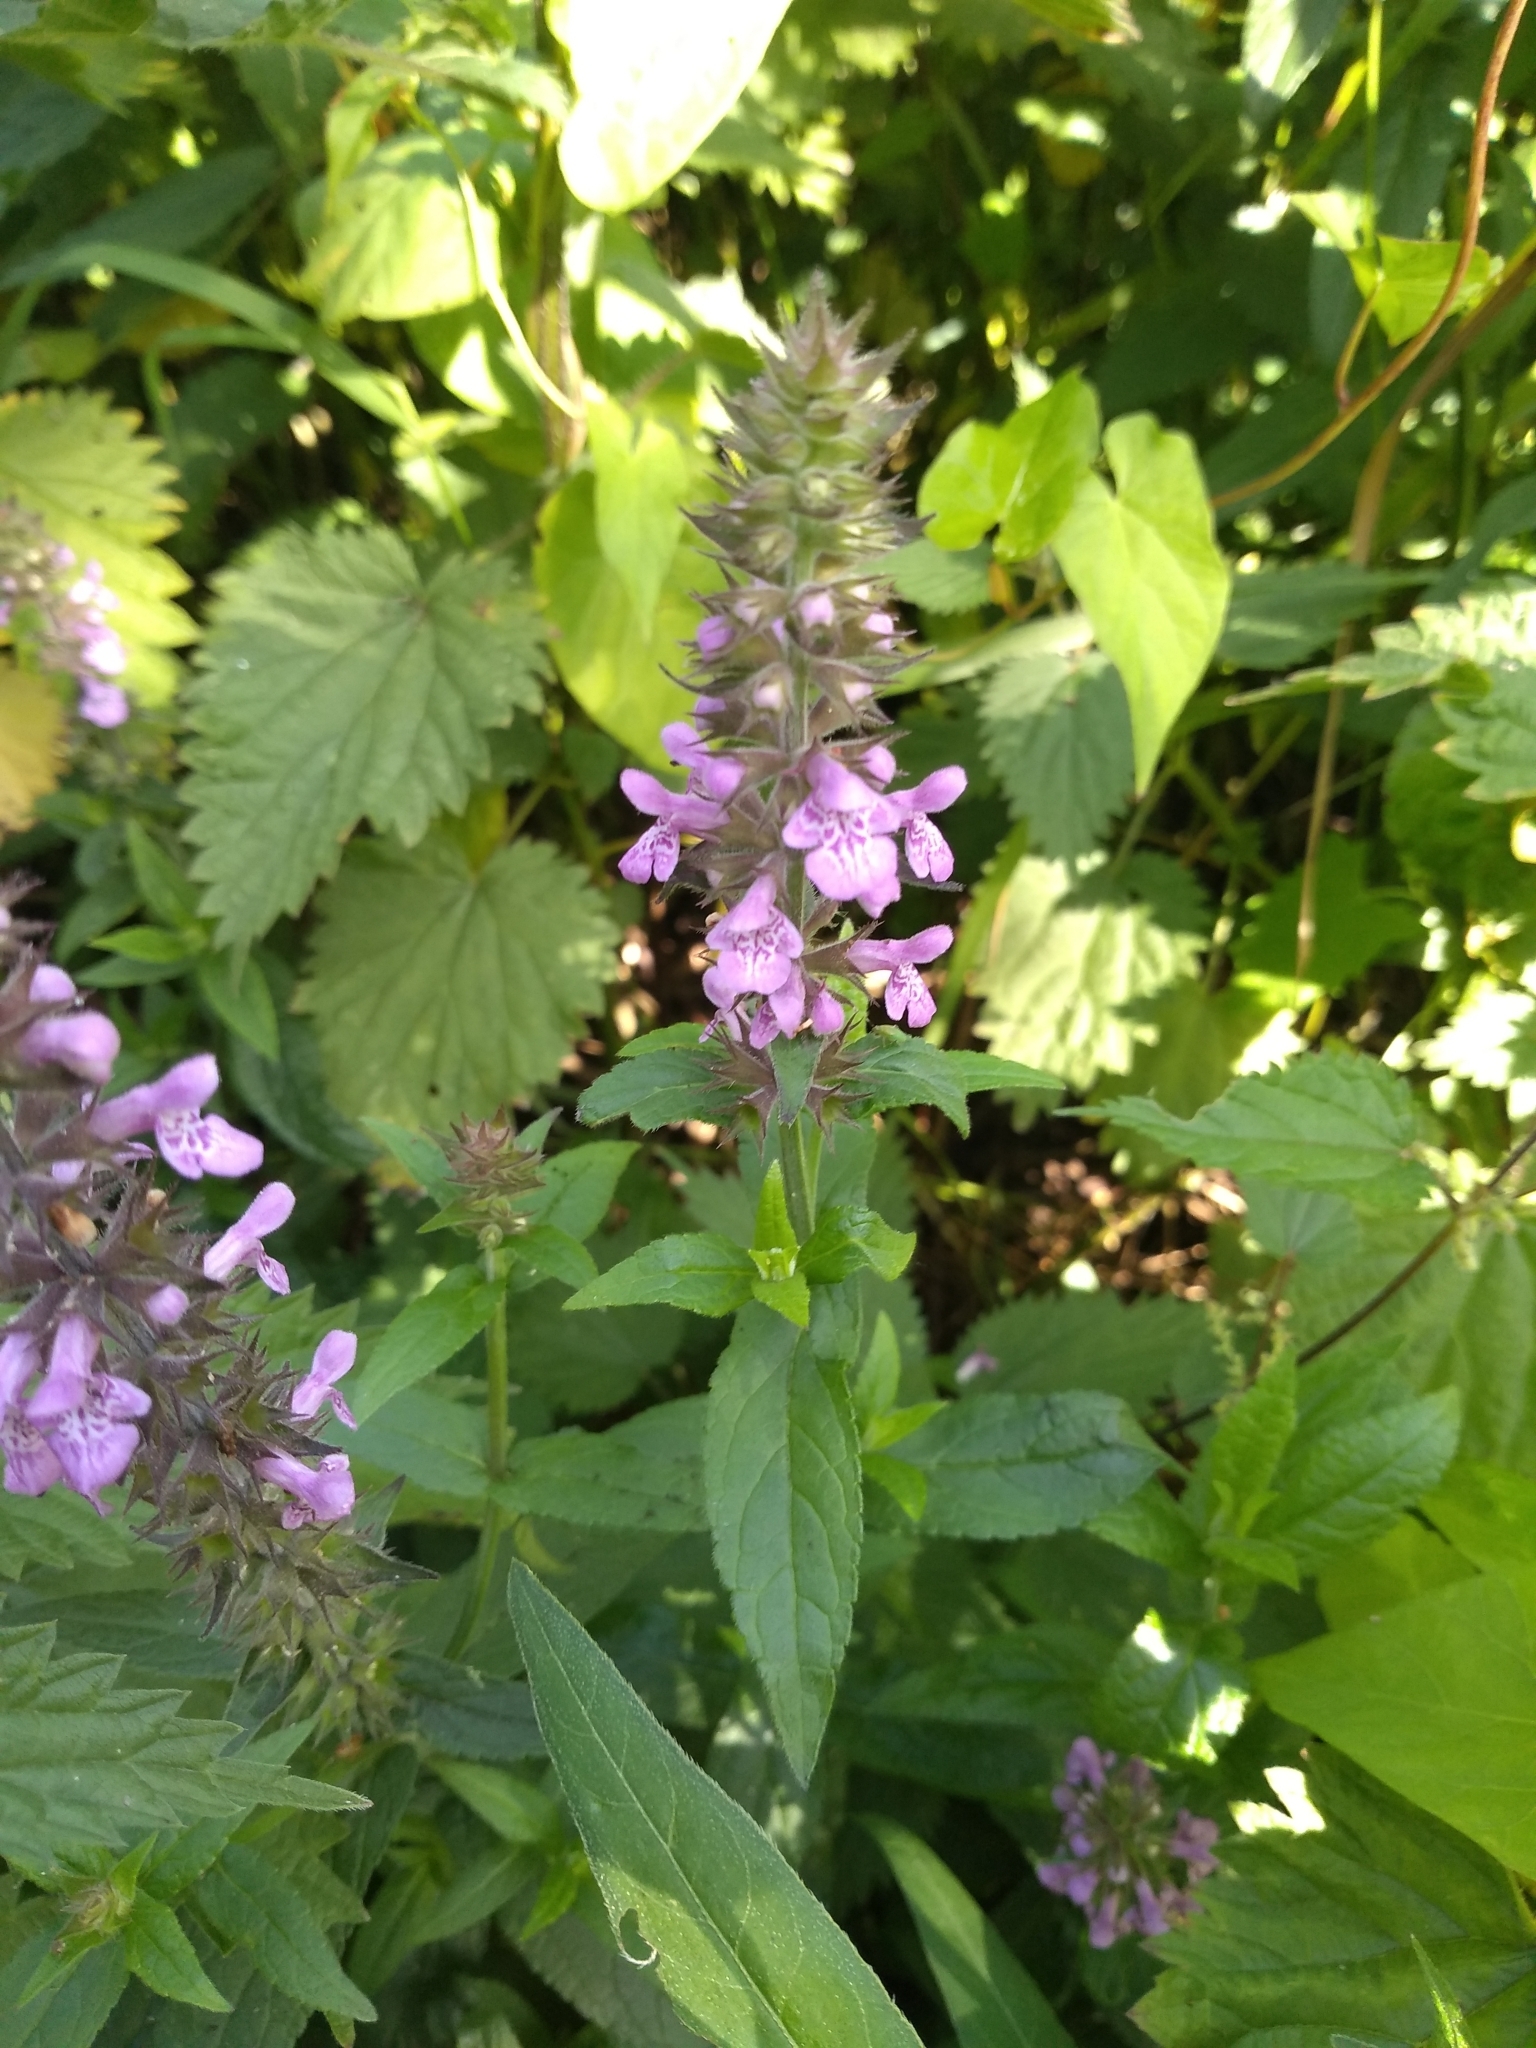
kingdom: Plantae
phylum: Tracheophyta
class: Magnoliopsida
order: Lamiales
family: Lamiaceae
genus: Stachys
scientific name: Stachys palustris
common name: Marsh woundwort
